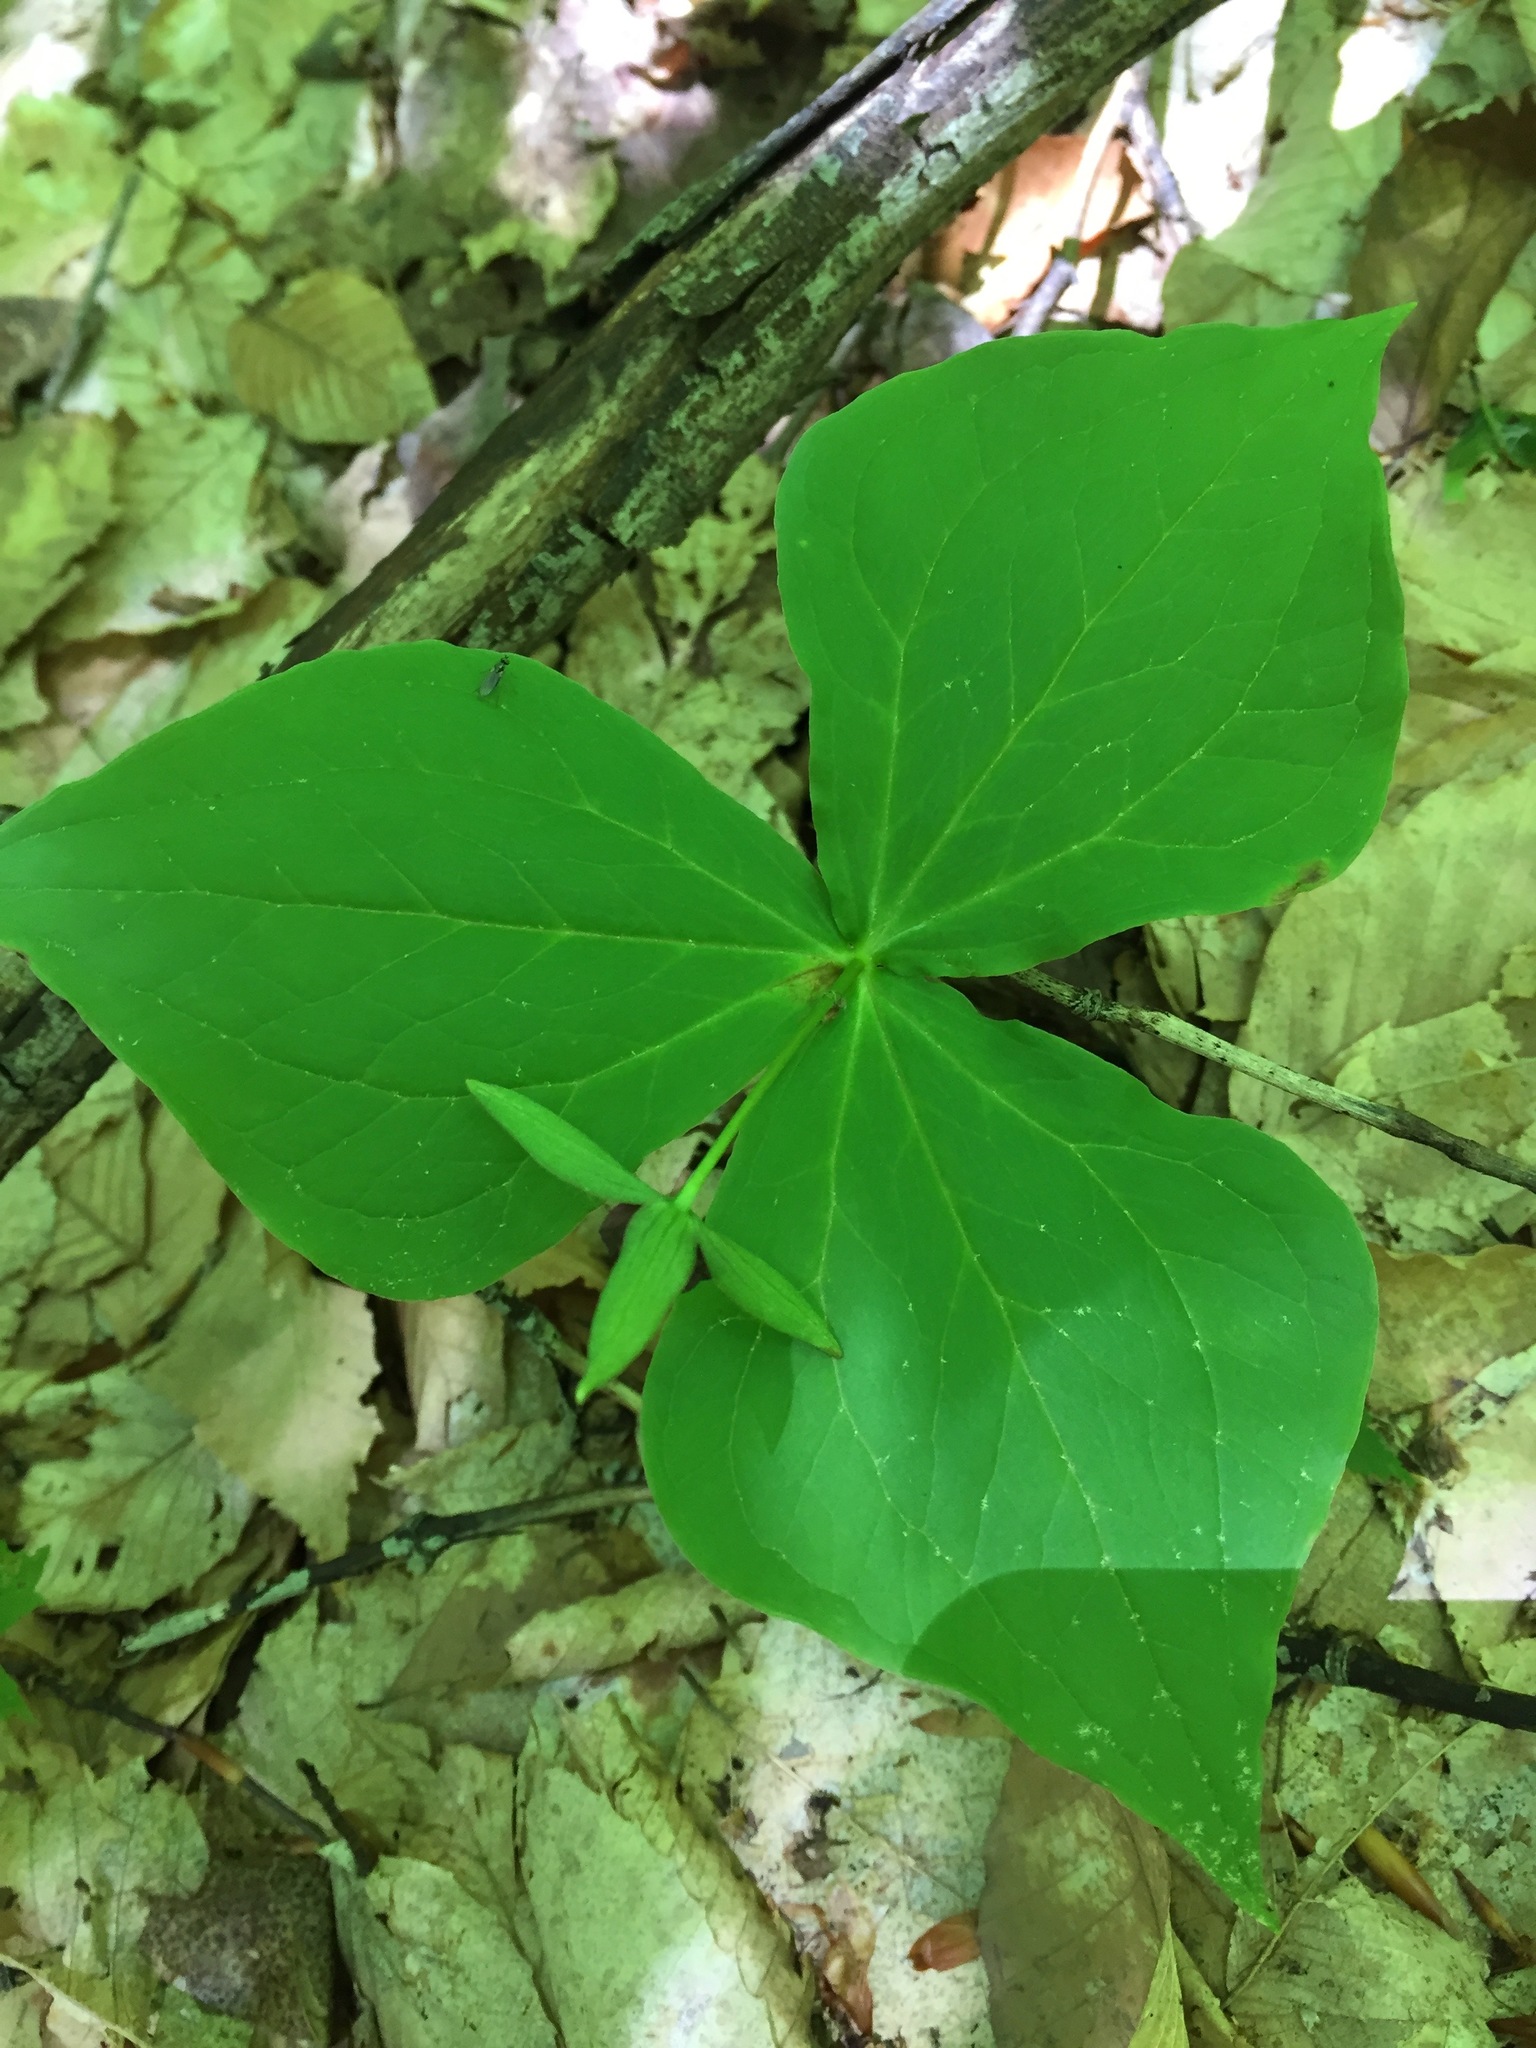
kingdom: Plantae
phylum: Tracheophyta
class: Liliopsida
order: Liliales
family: Melanthiaceae
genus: Trillium
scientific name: Trillium erectum
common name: Purple trillium
